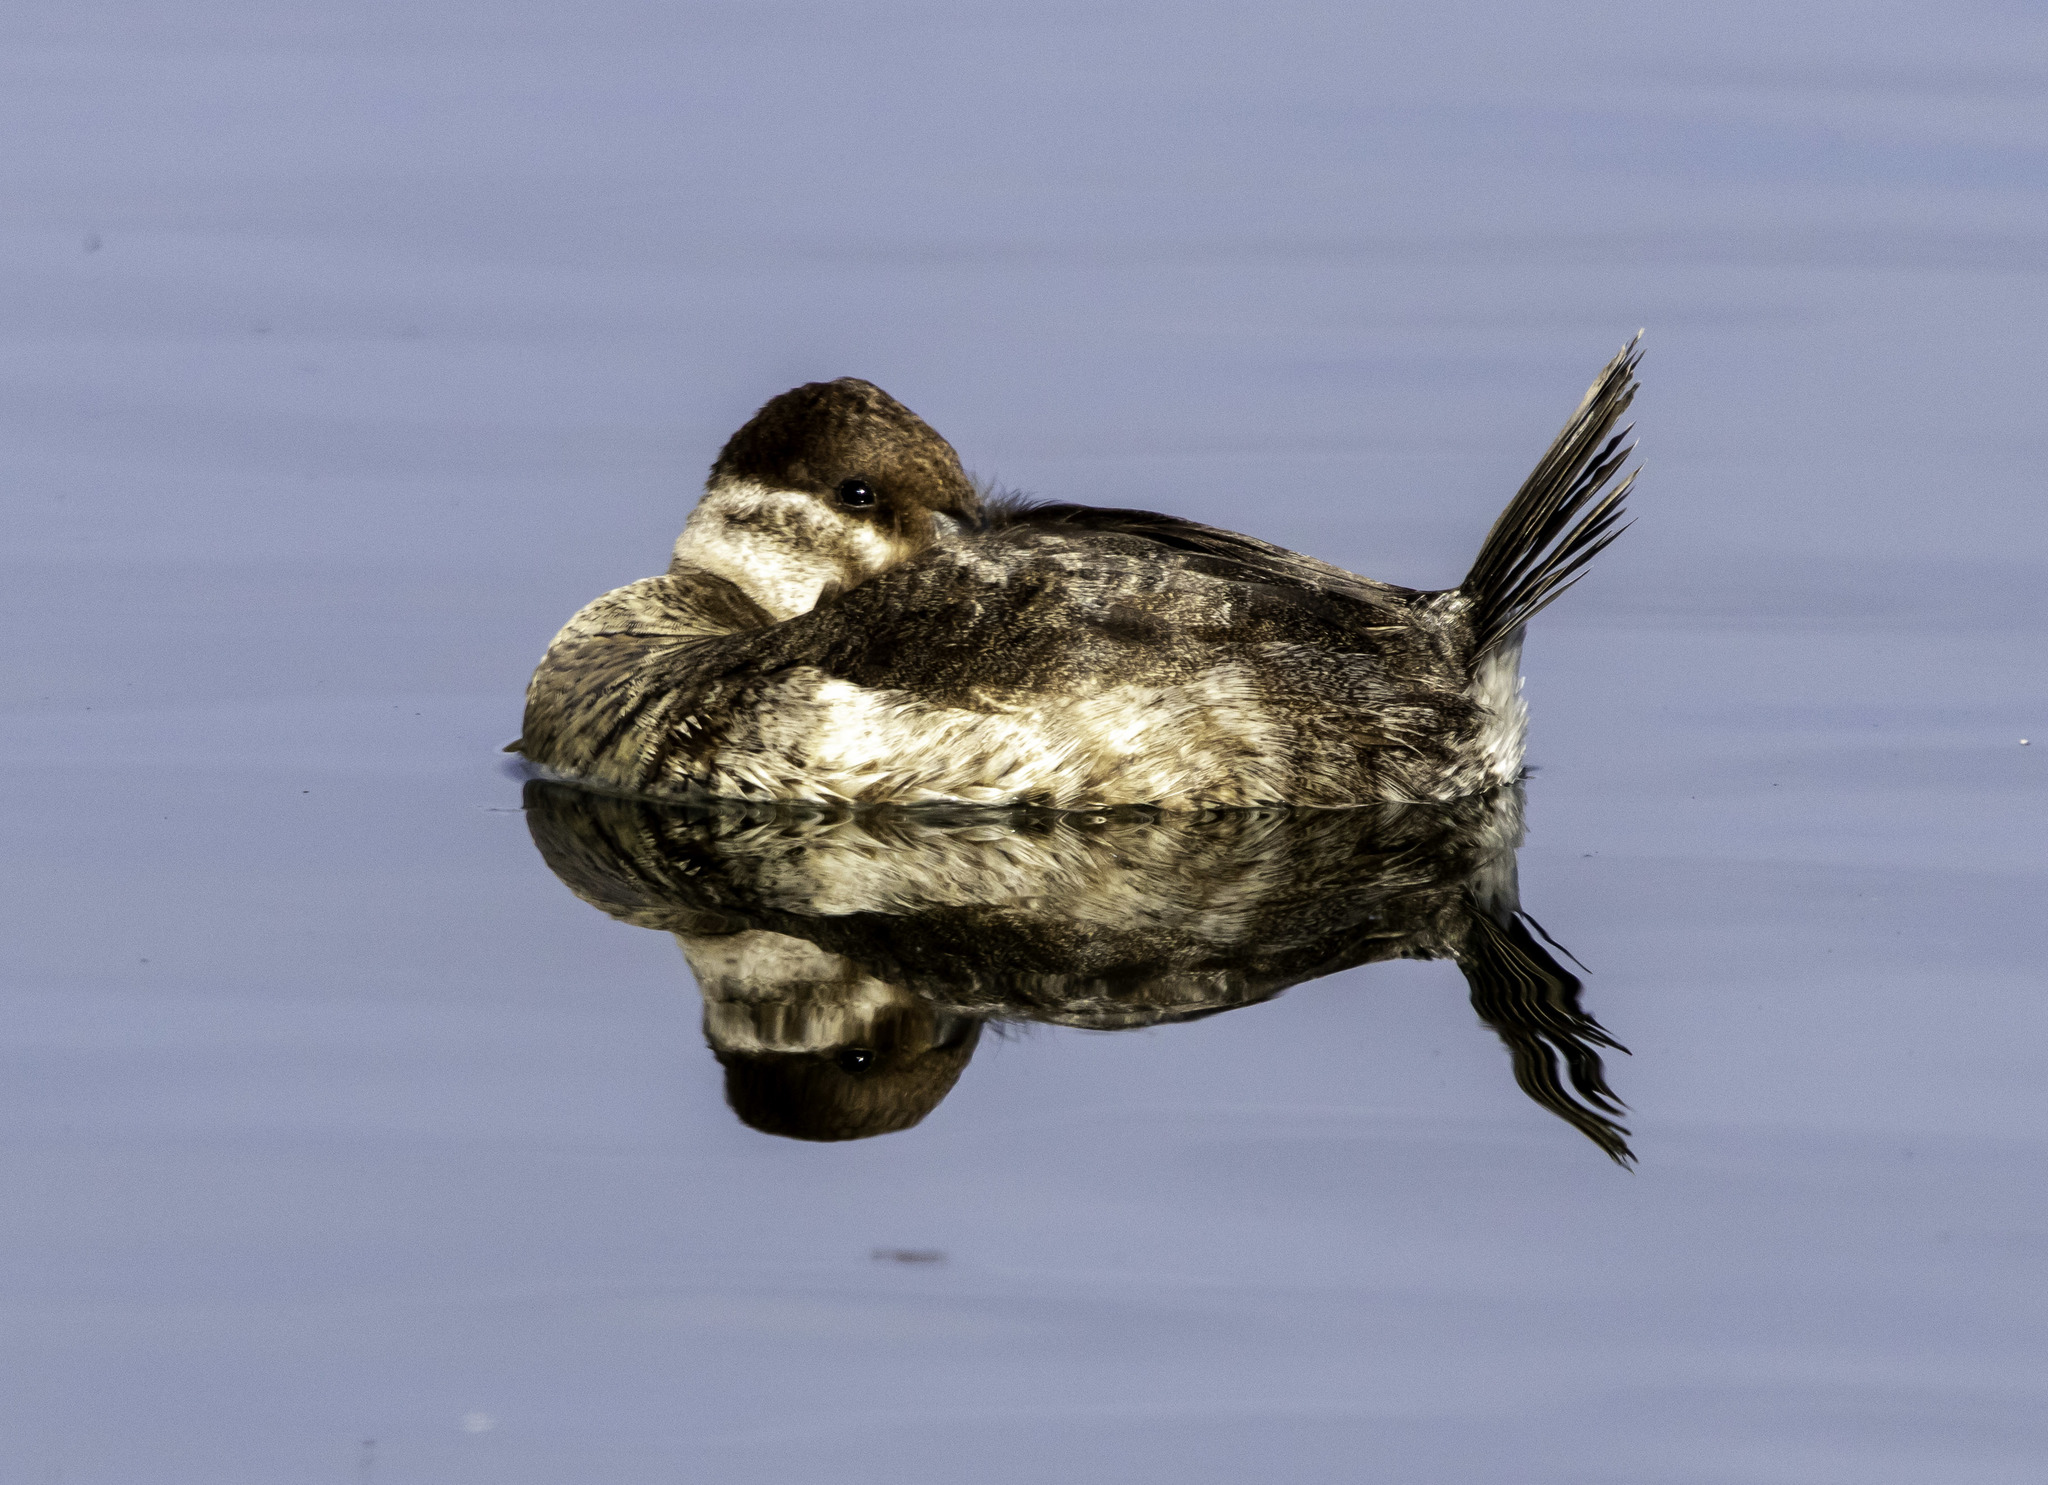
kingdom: Animalia
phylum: Chordata
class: Aves
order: Anseriformes
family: Anatidae
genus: Oxyura
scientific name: Oxyura jamaicensis
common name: Ruddy duck
